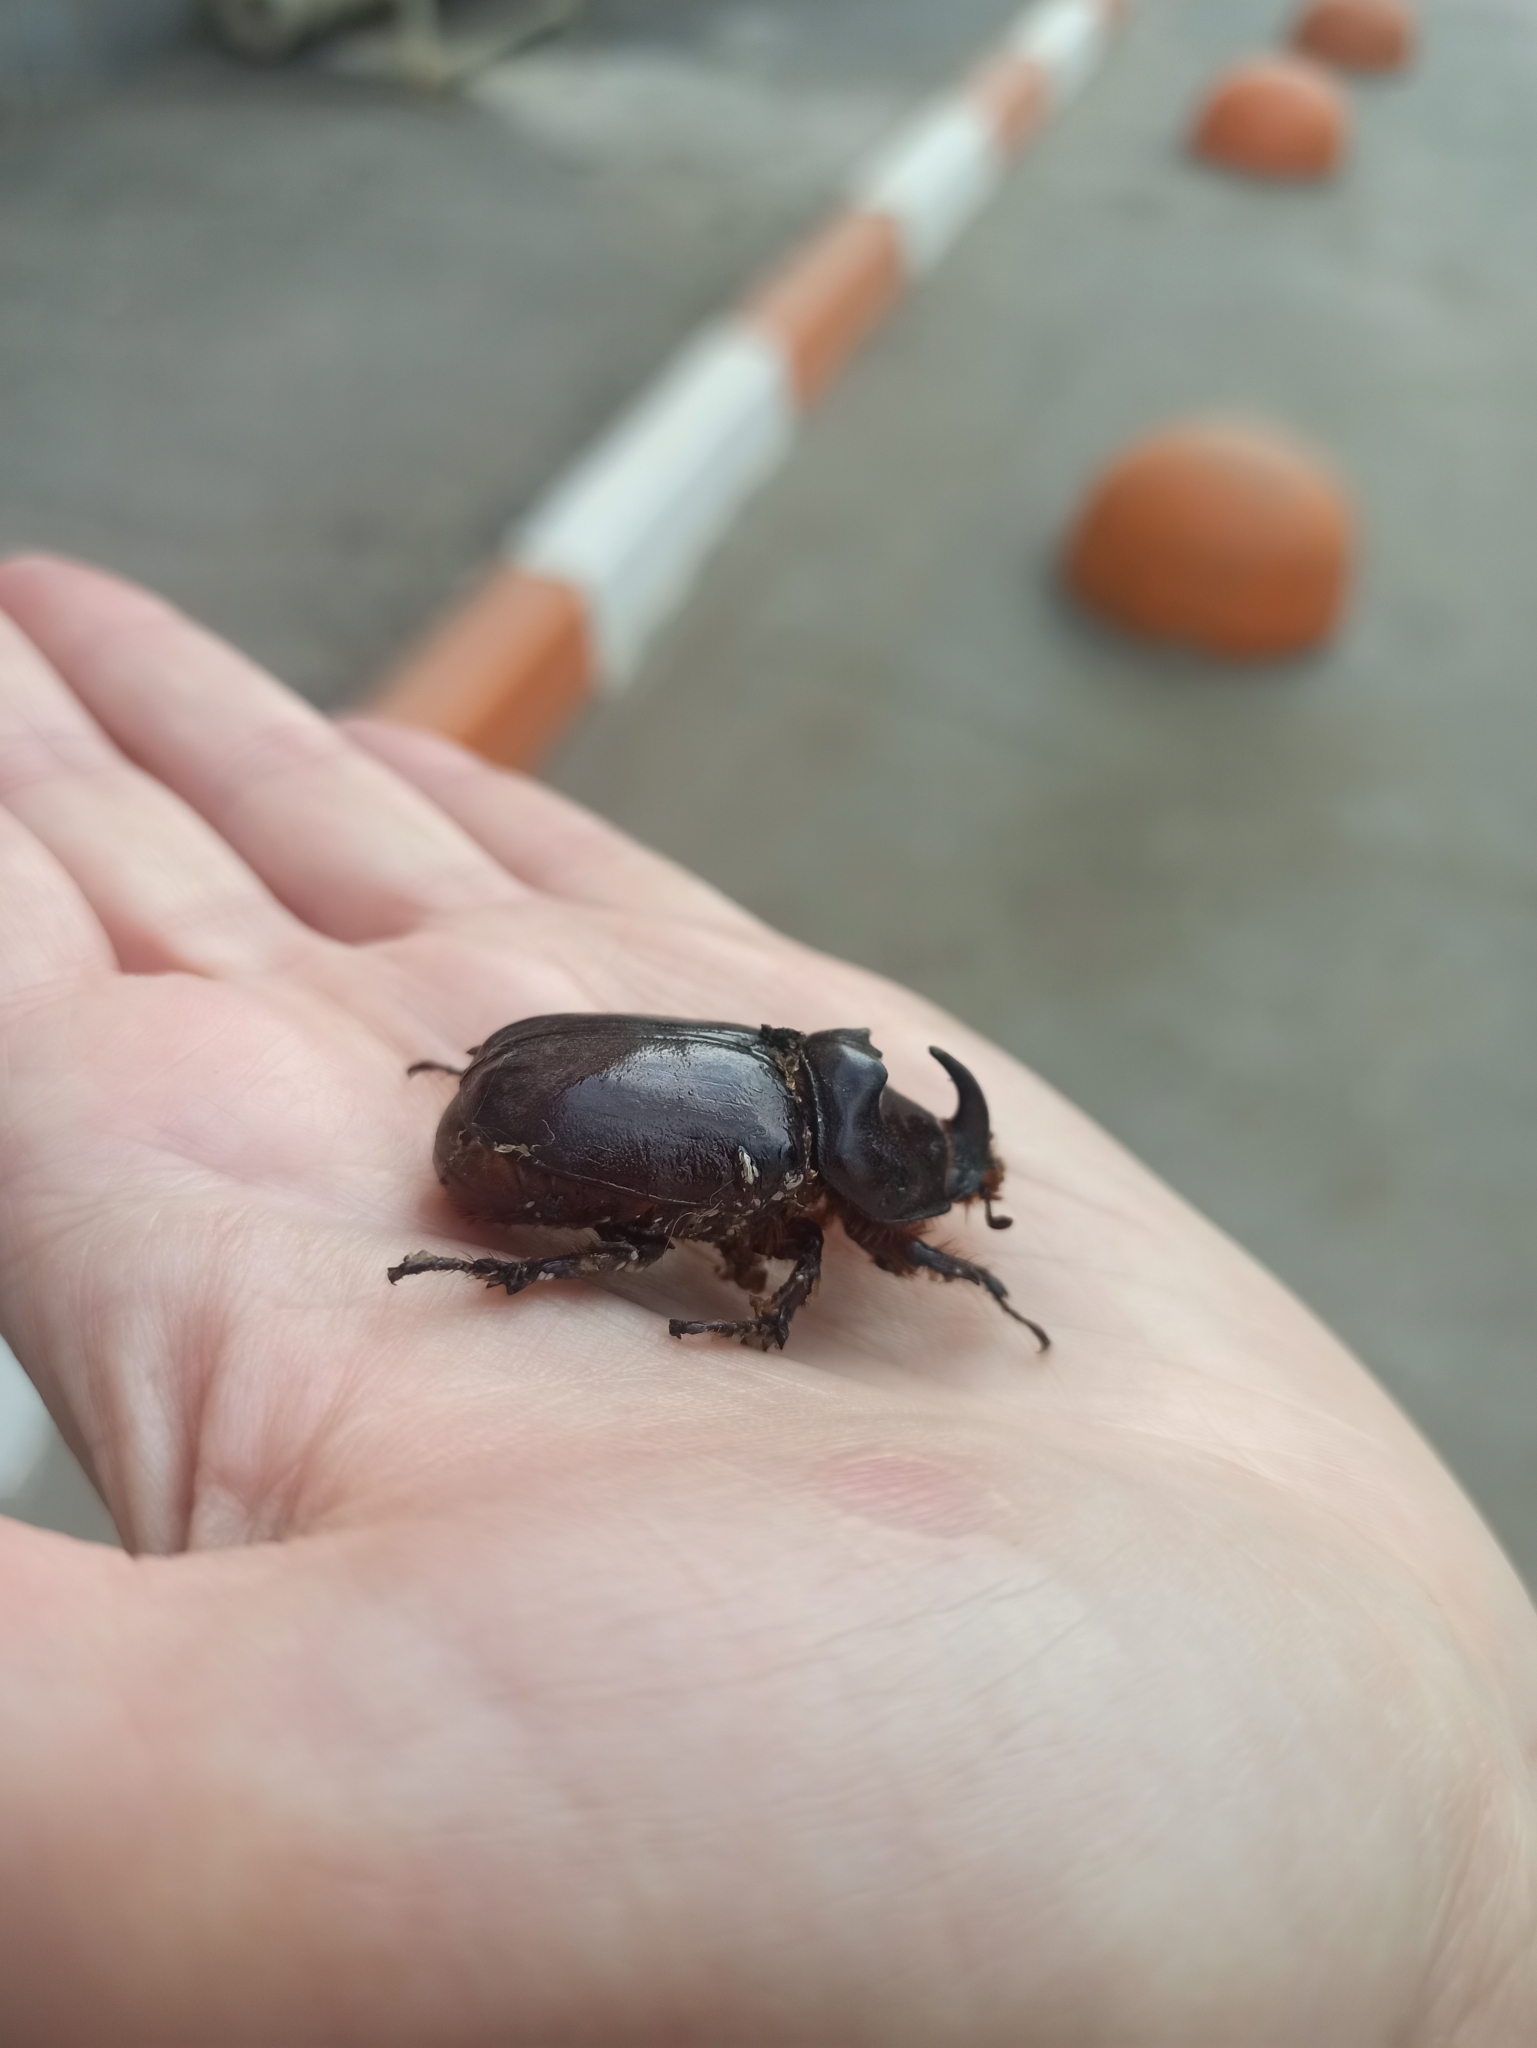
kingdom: Animalia
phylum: Arthropoda
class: Insecta
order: Coleoptera
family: Scarabaeidae
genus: Oryctes
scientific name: Oryctes nasicornis
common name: European rhinoceros beetle
